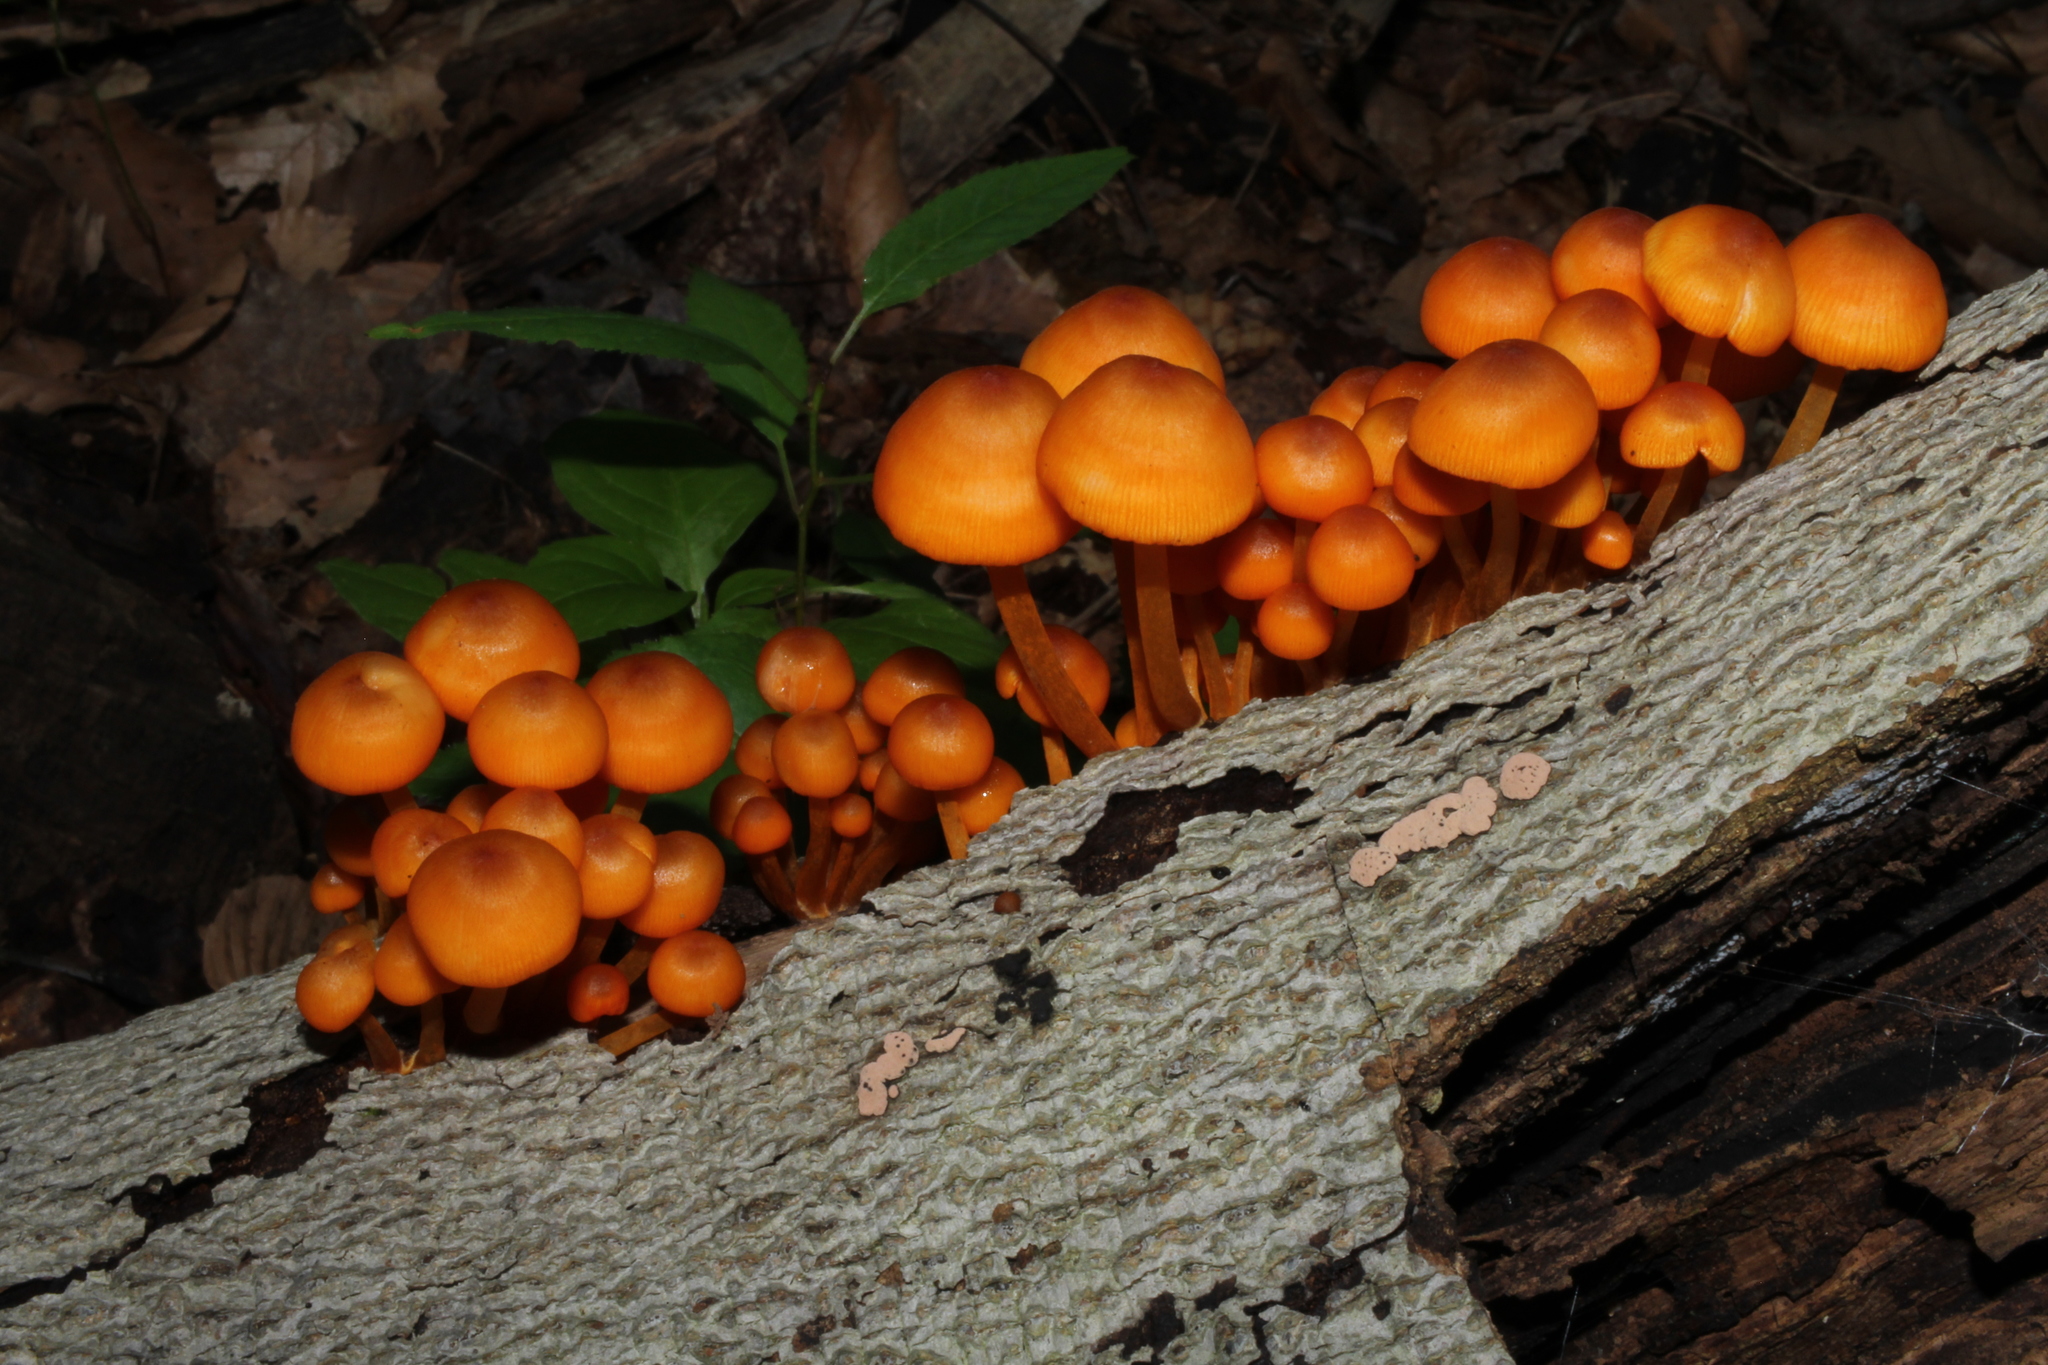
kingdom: Fungi
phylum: Basidiomycota
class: Agaricomycetes
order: Agaricales
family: Mycenaceae
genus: Mycena
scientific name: Mycena leaiana
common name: Orange mycena
